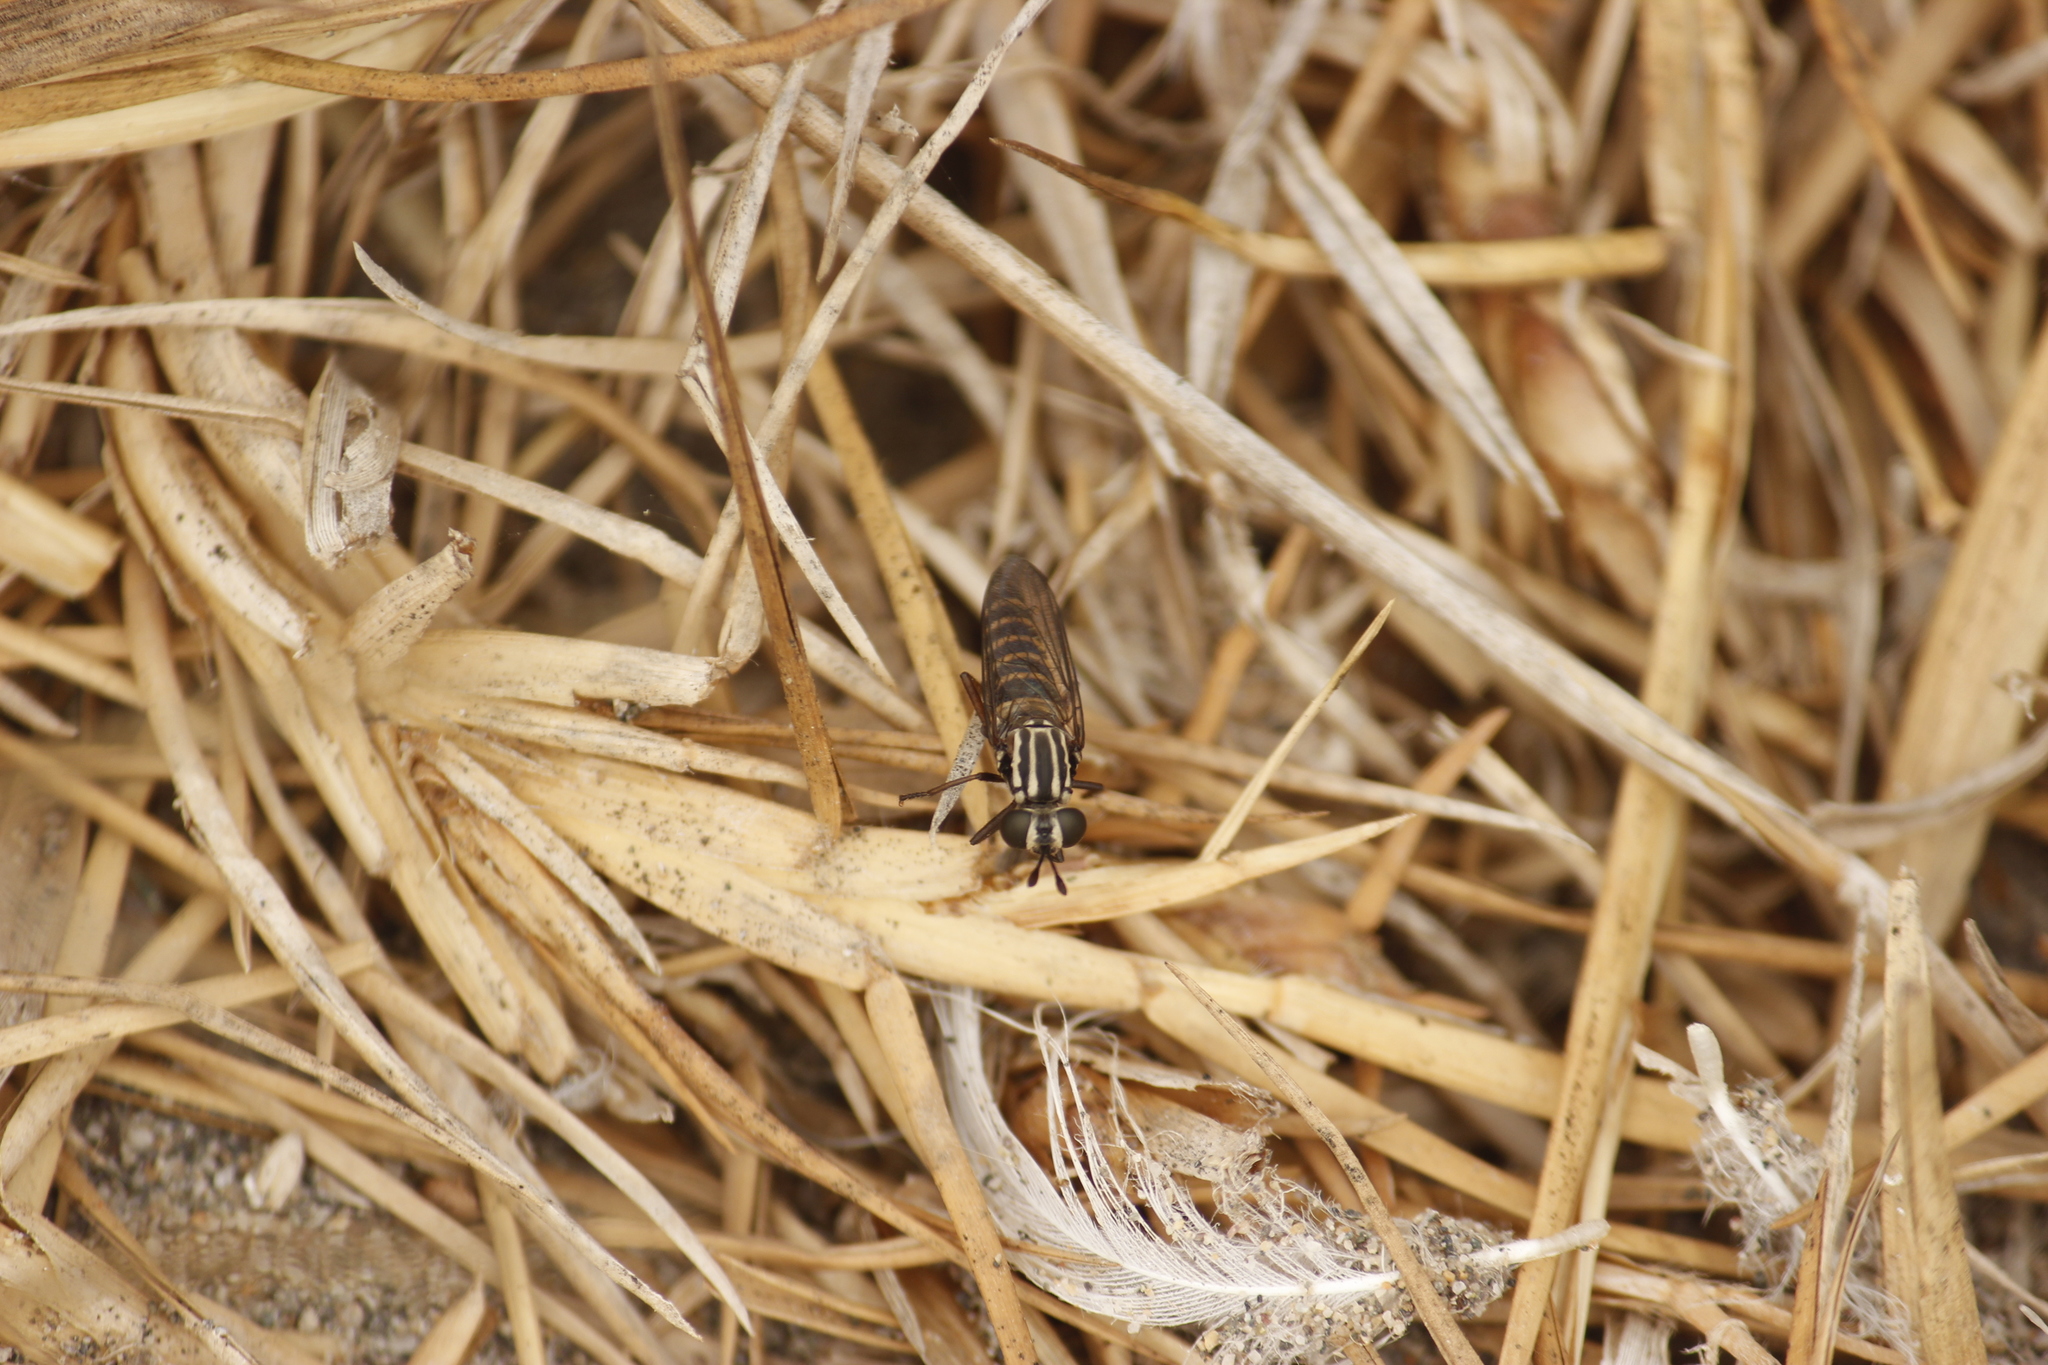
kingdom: Animalia
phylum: Arthropoda
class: Insecta
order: Diptera
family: Mydidae
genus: Plyomydas
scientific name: Plyomydas peruviensis
